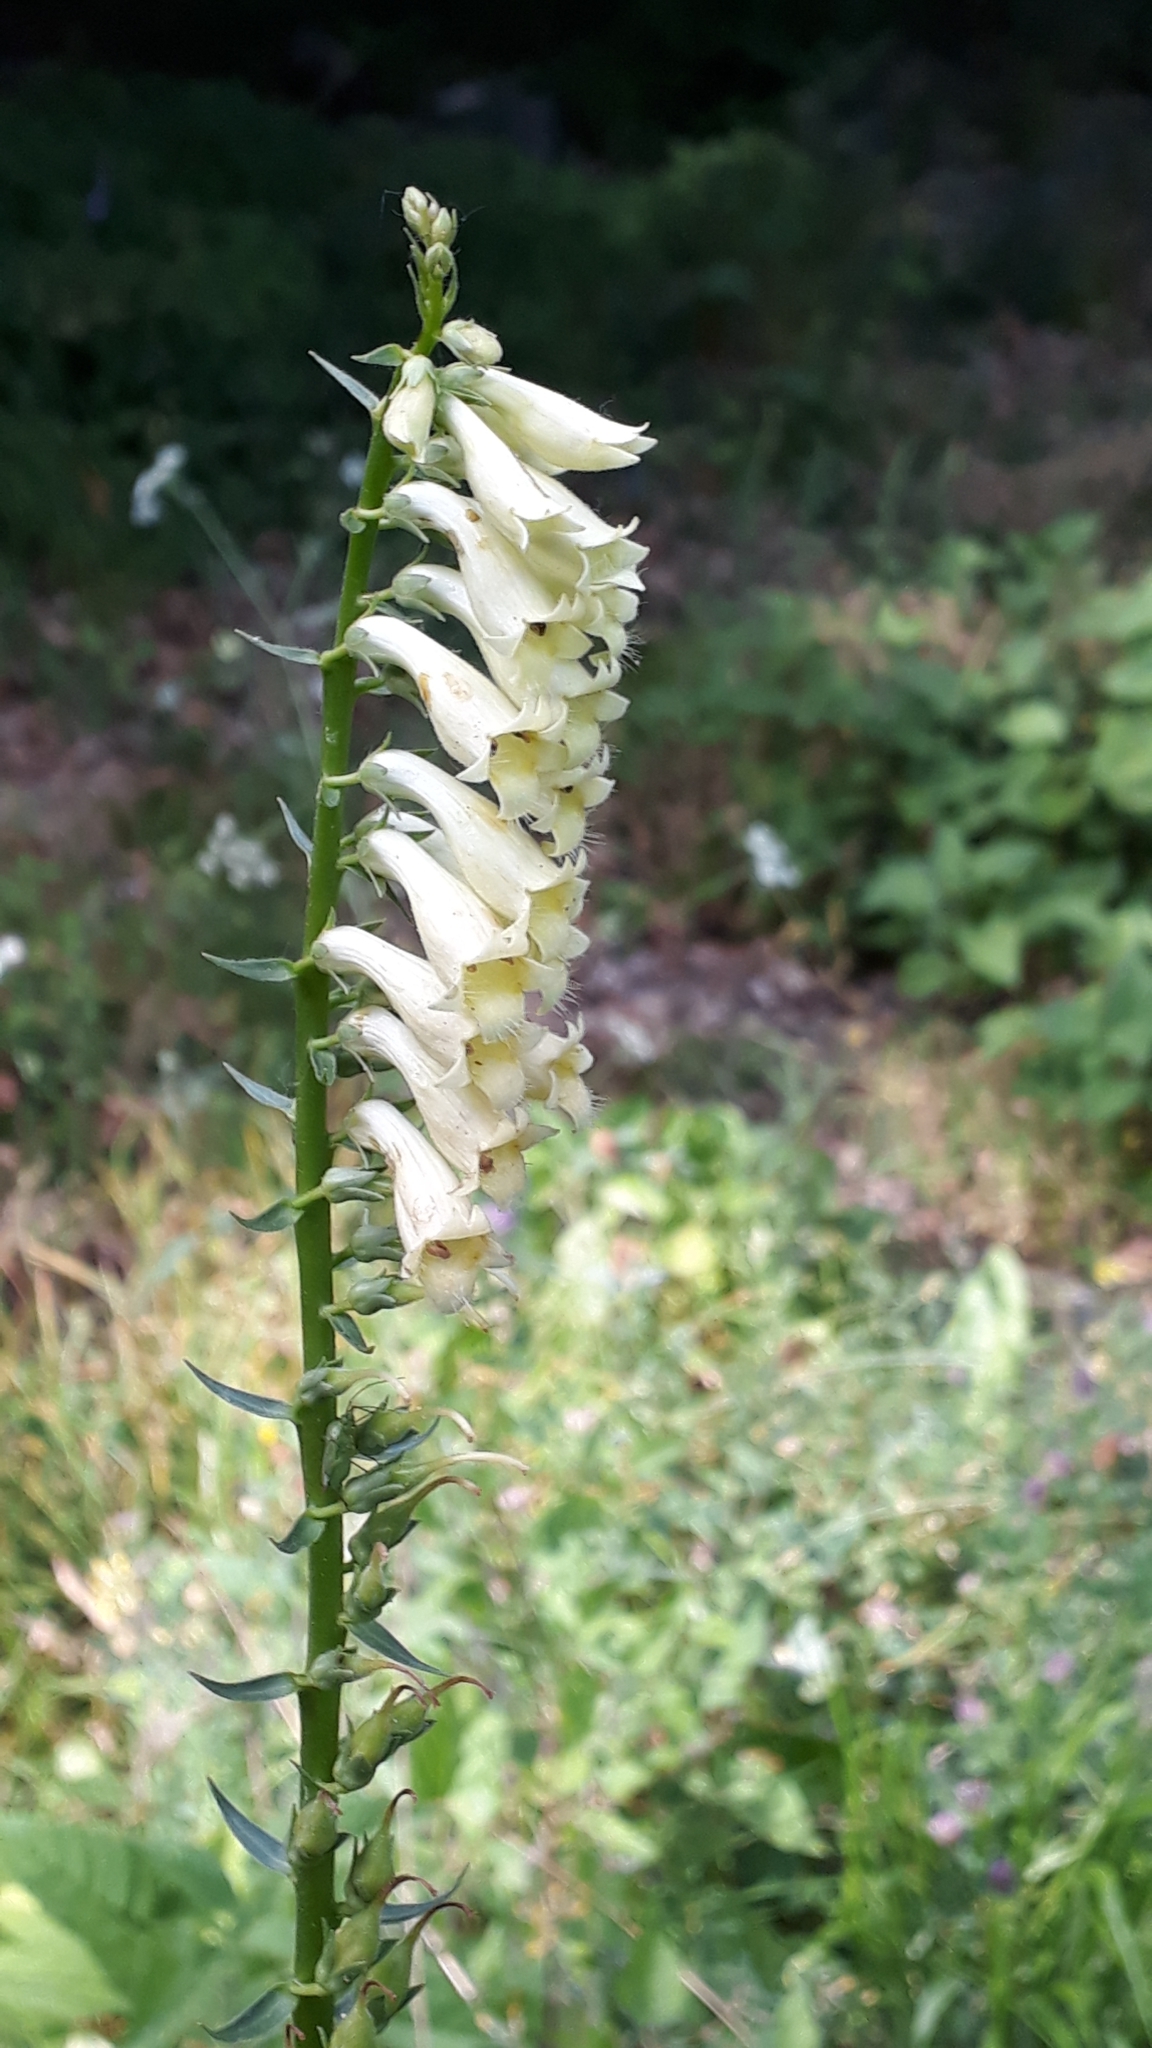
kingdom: Plantae
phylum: Tracheophyta
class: Magnoliopsida
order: Lamiales
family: Plantaginaceae
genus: Digitalis
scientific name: Digitalis lutea
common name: Straw foxglove
